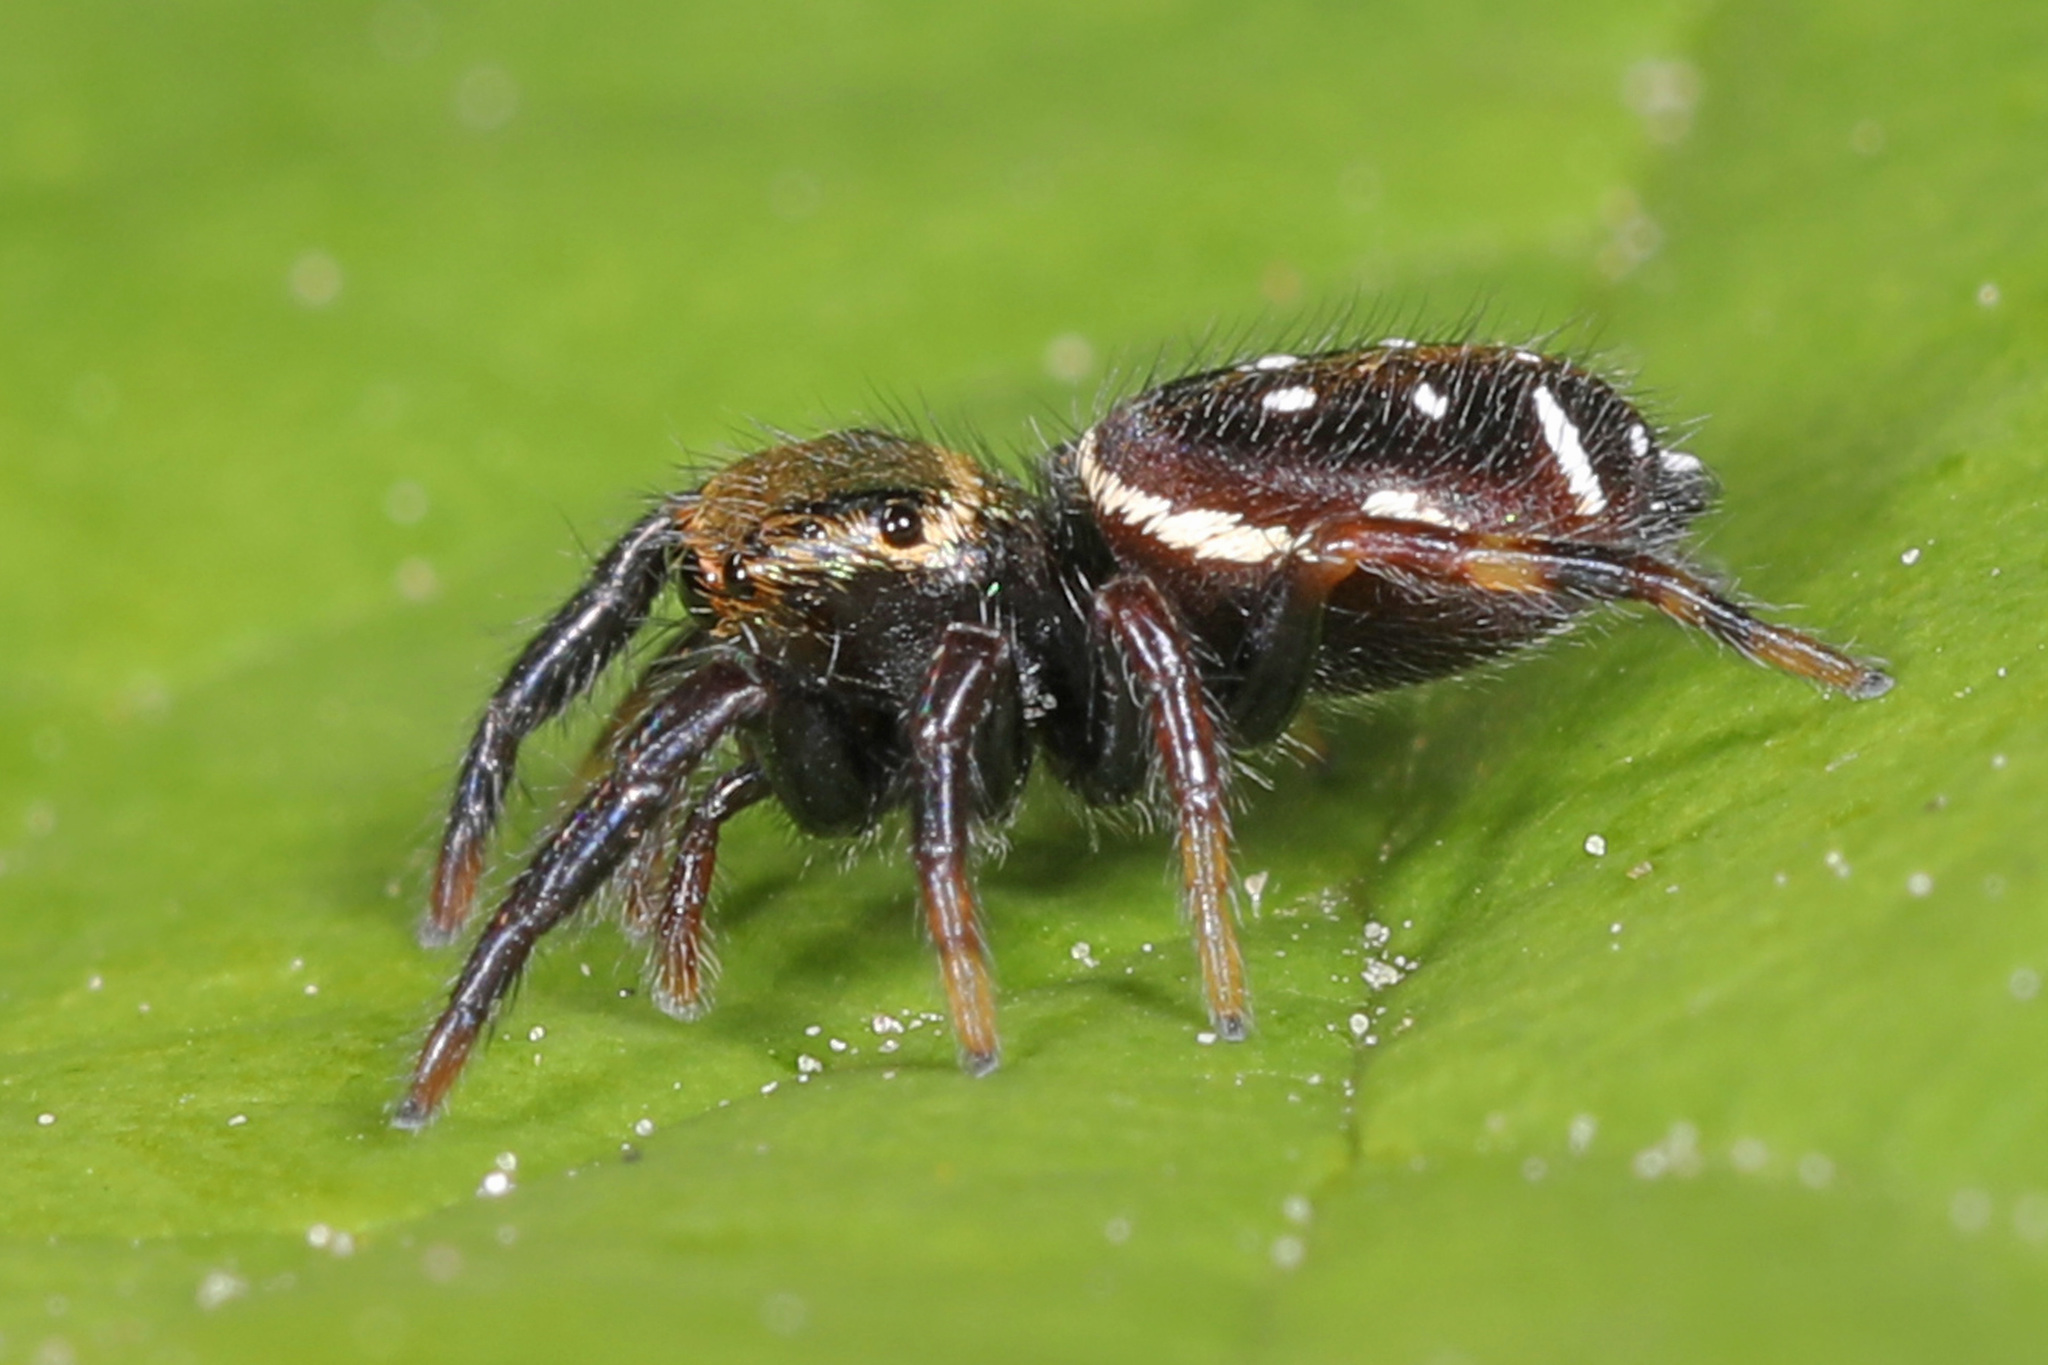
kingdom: Animalia
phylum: Arthropoda
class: Arachnida
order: Araneae
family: Salticidae
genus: Paraphidippus
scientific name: Paraphidippus aurantius
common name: Jumping spiders
